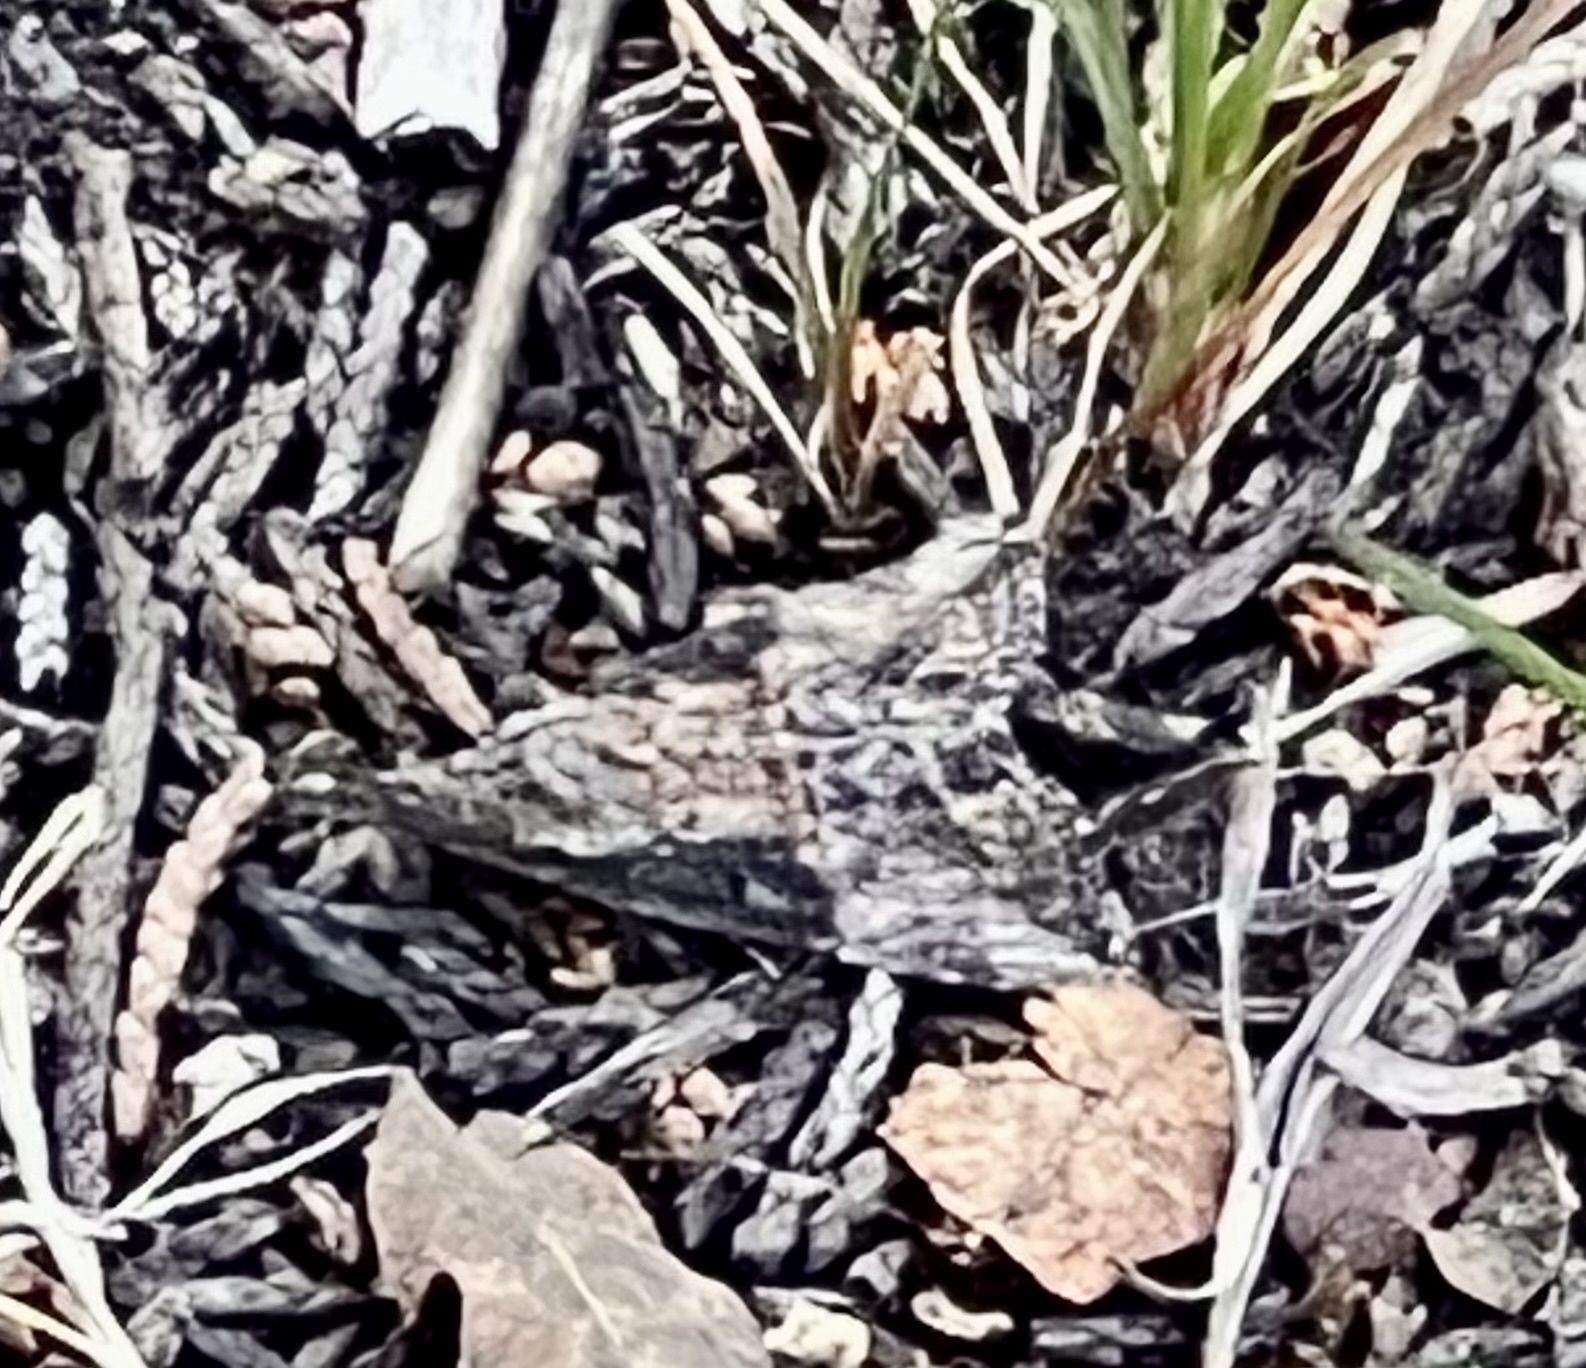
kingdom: Animalia
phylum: Arthropoda
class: Insecta
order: Lepidoptera
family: Erebidae
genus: Hypena
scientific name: Hypena scabra
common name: Green cloverworm
